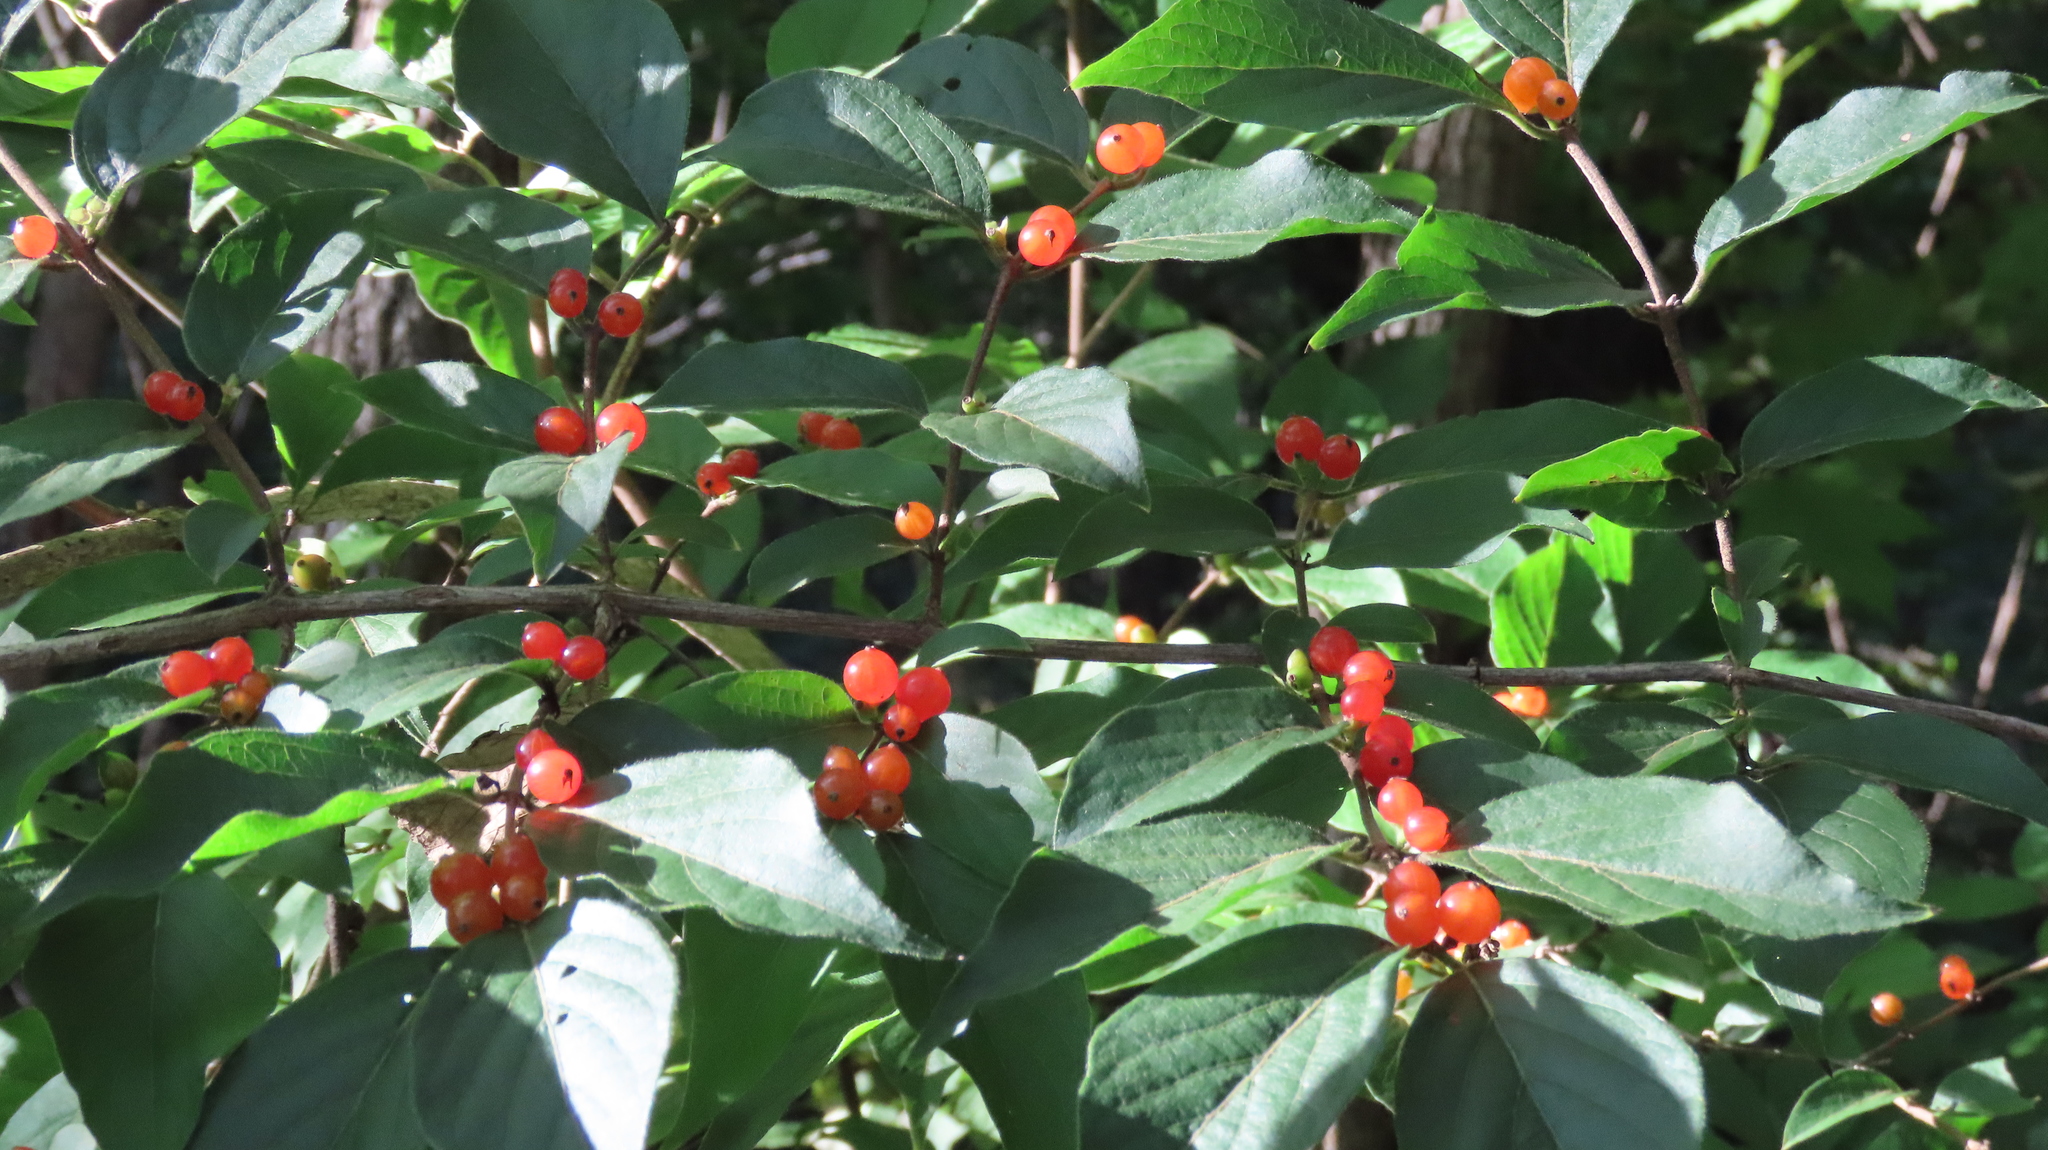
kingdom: Plantae
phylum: Tracheophyta
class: Magnoliopsida
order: Dipsacales
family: Caprifoliaceae
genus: Lonicera
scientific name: Lonicera maackii
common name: Amur honeysuckle
